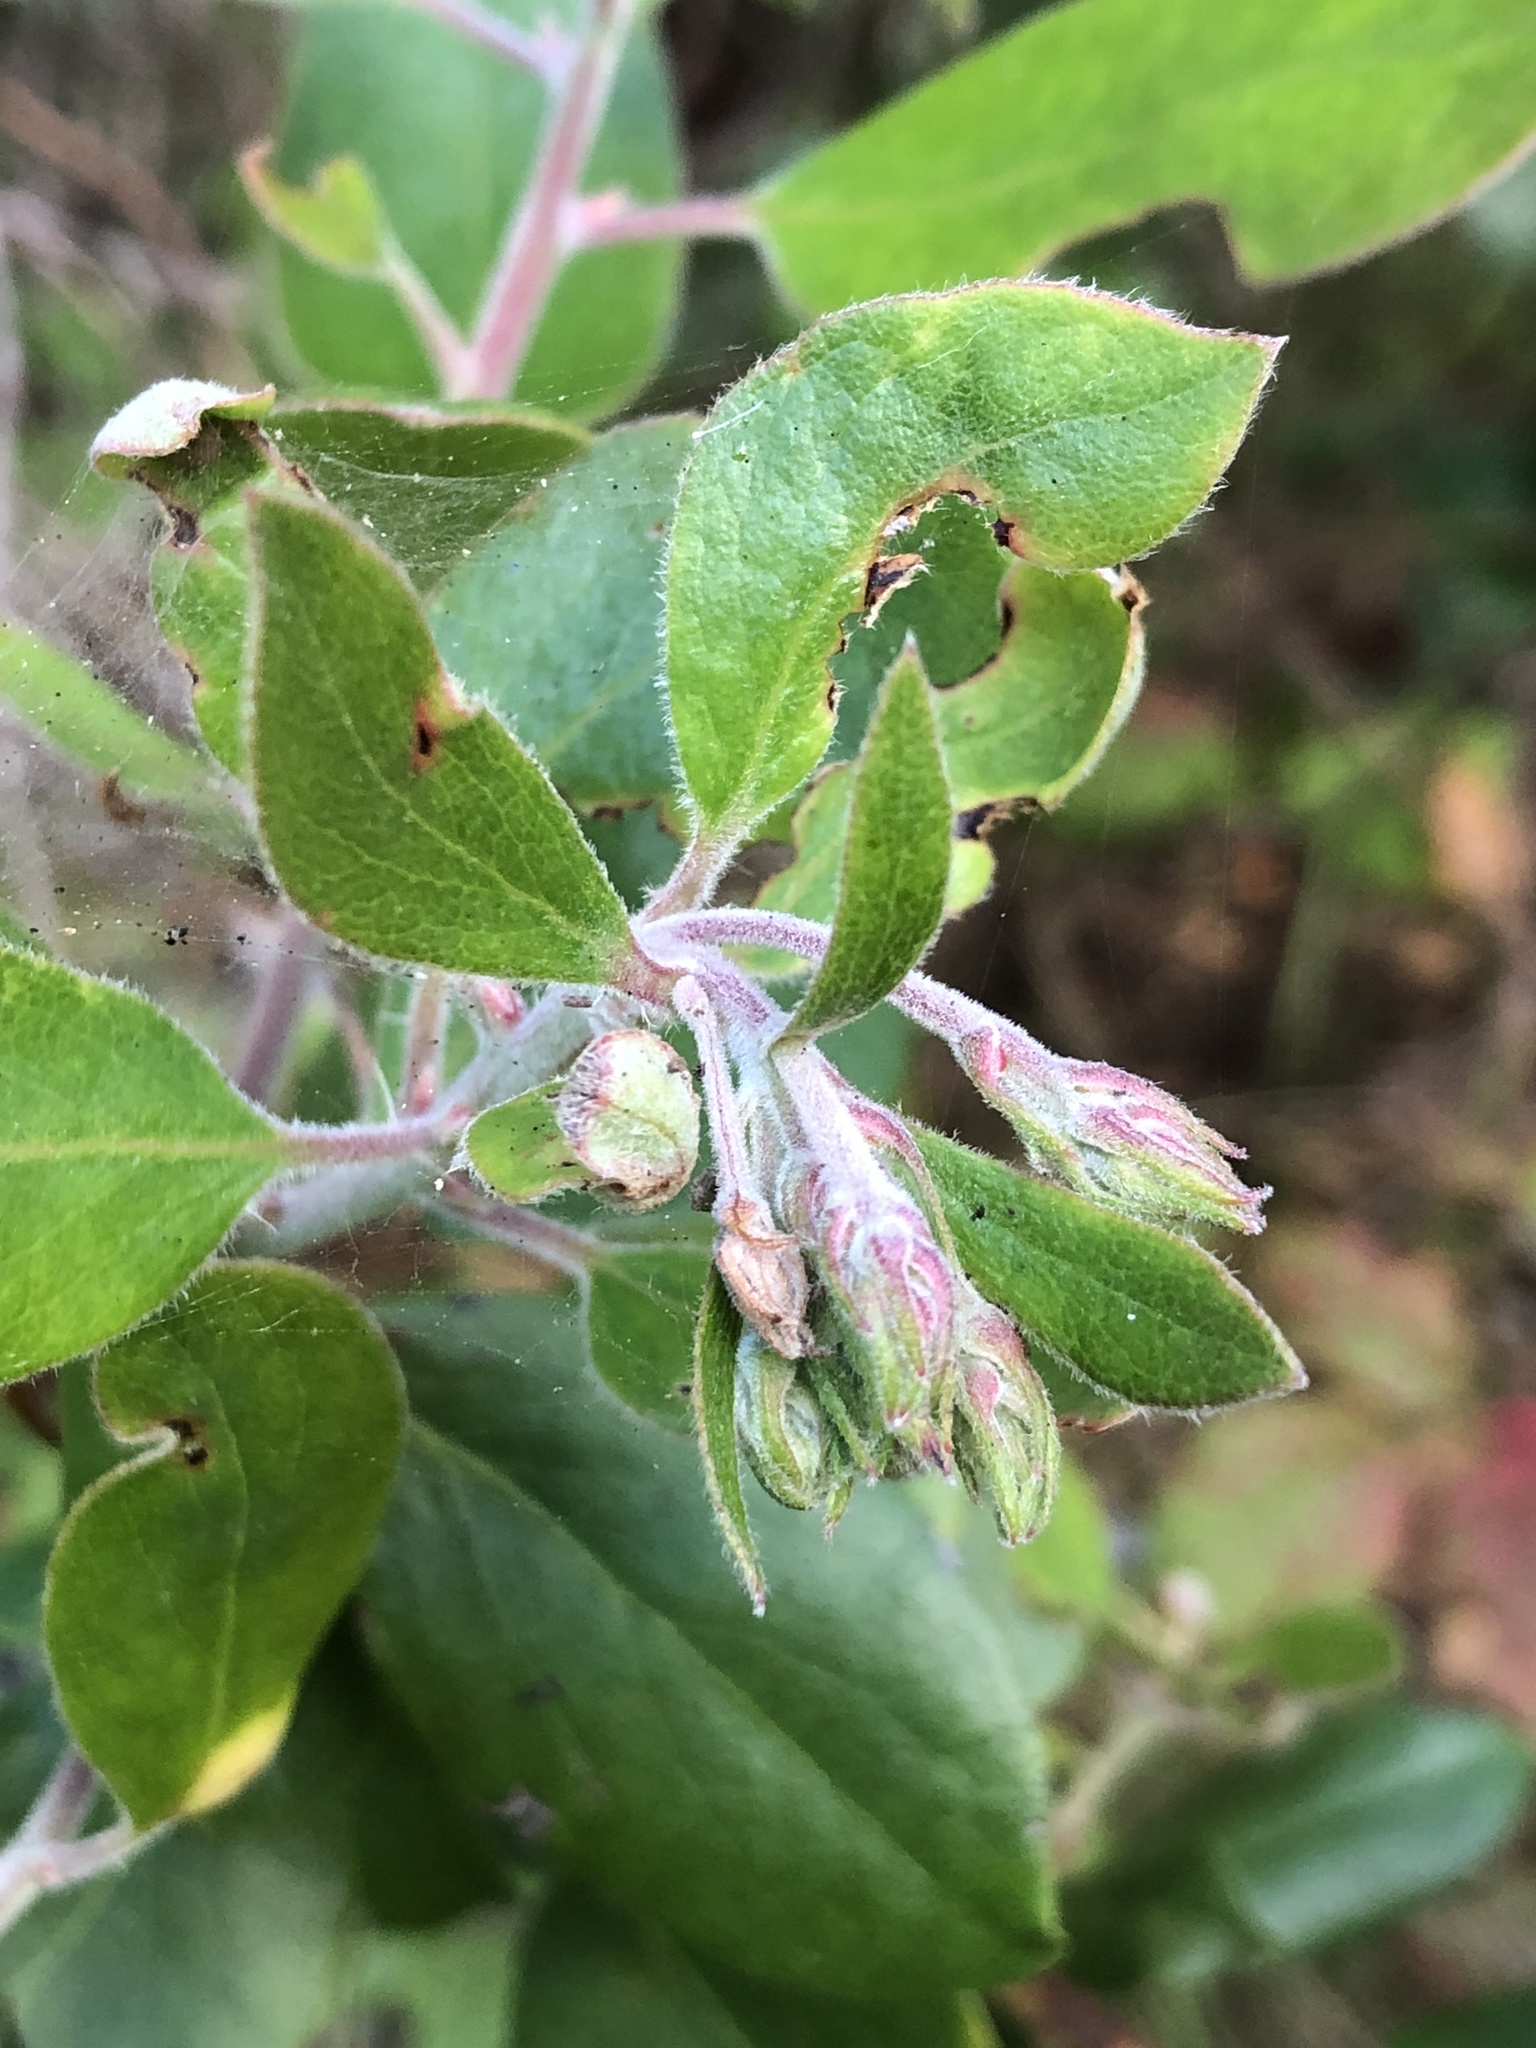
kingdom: Plantae
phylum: Tracheophyta
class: Magnoliopsida
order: Ericales
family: Ericaceae
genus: Arctostaphylos
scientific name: Arctostaphylos tomentosa
